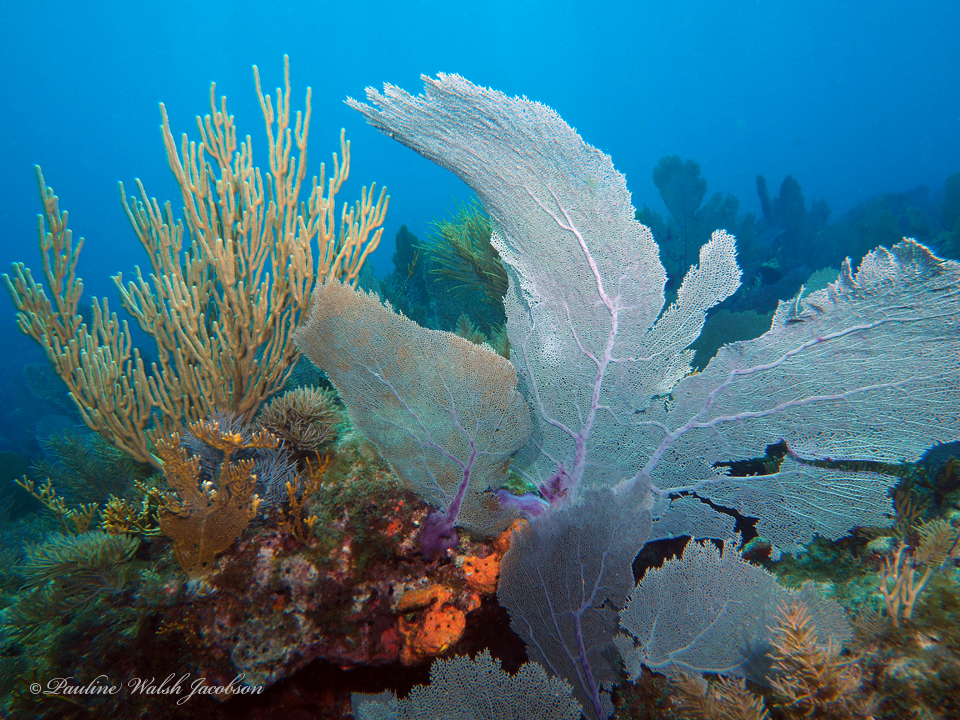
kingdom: Animalia
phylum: Cnidaria
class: Anthozoa
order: Malacalcyonacea
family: Gorgoniidae
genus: Gorgonia
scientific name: Gorgonia ventalina
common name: Common sea fan
